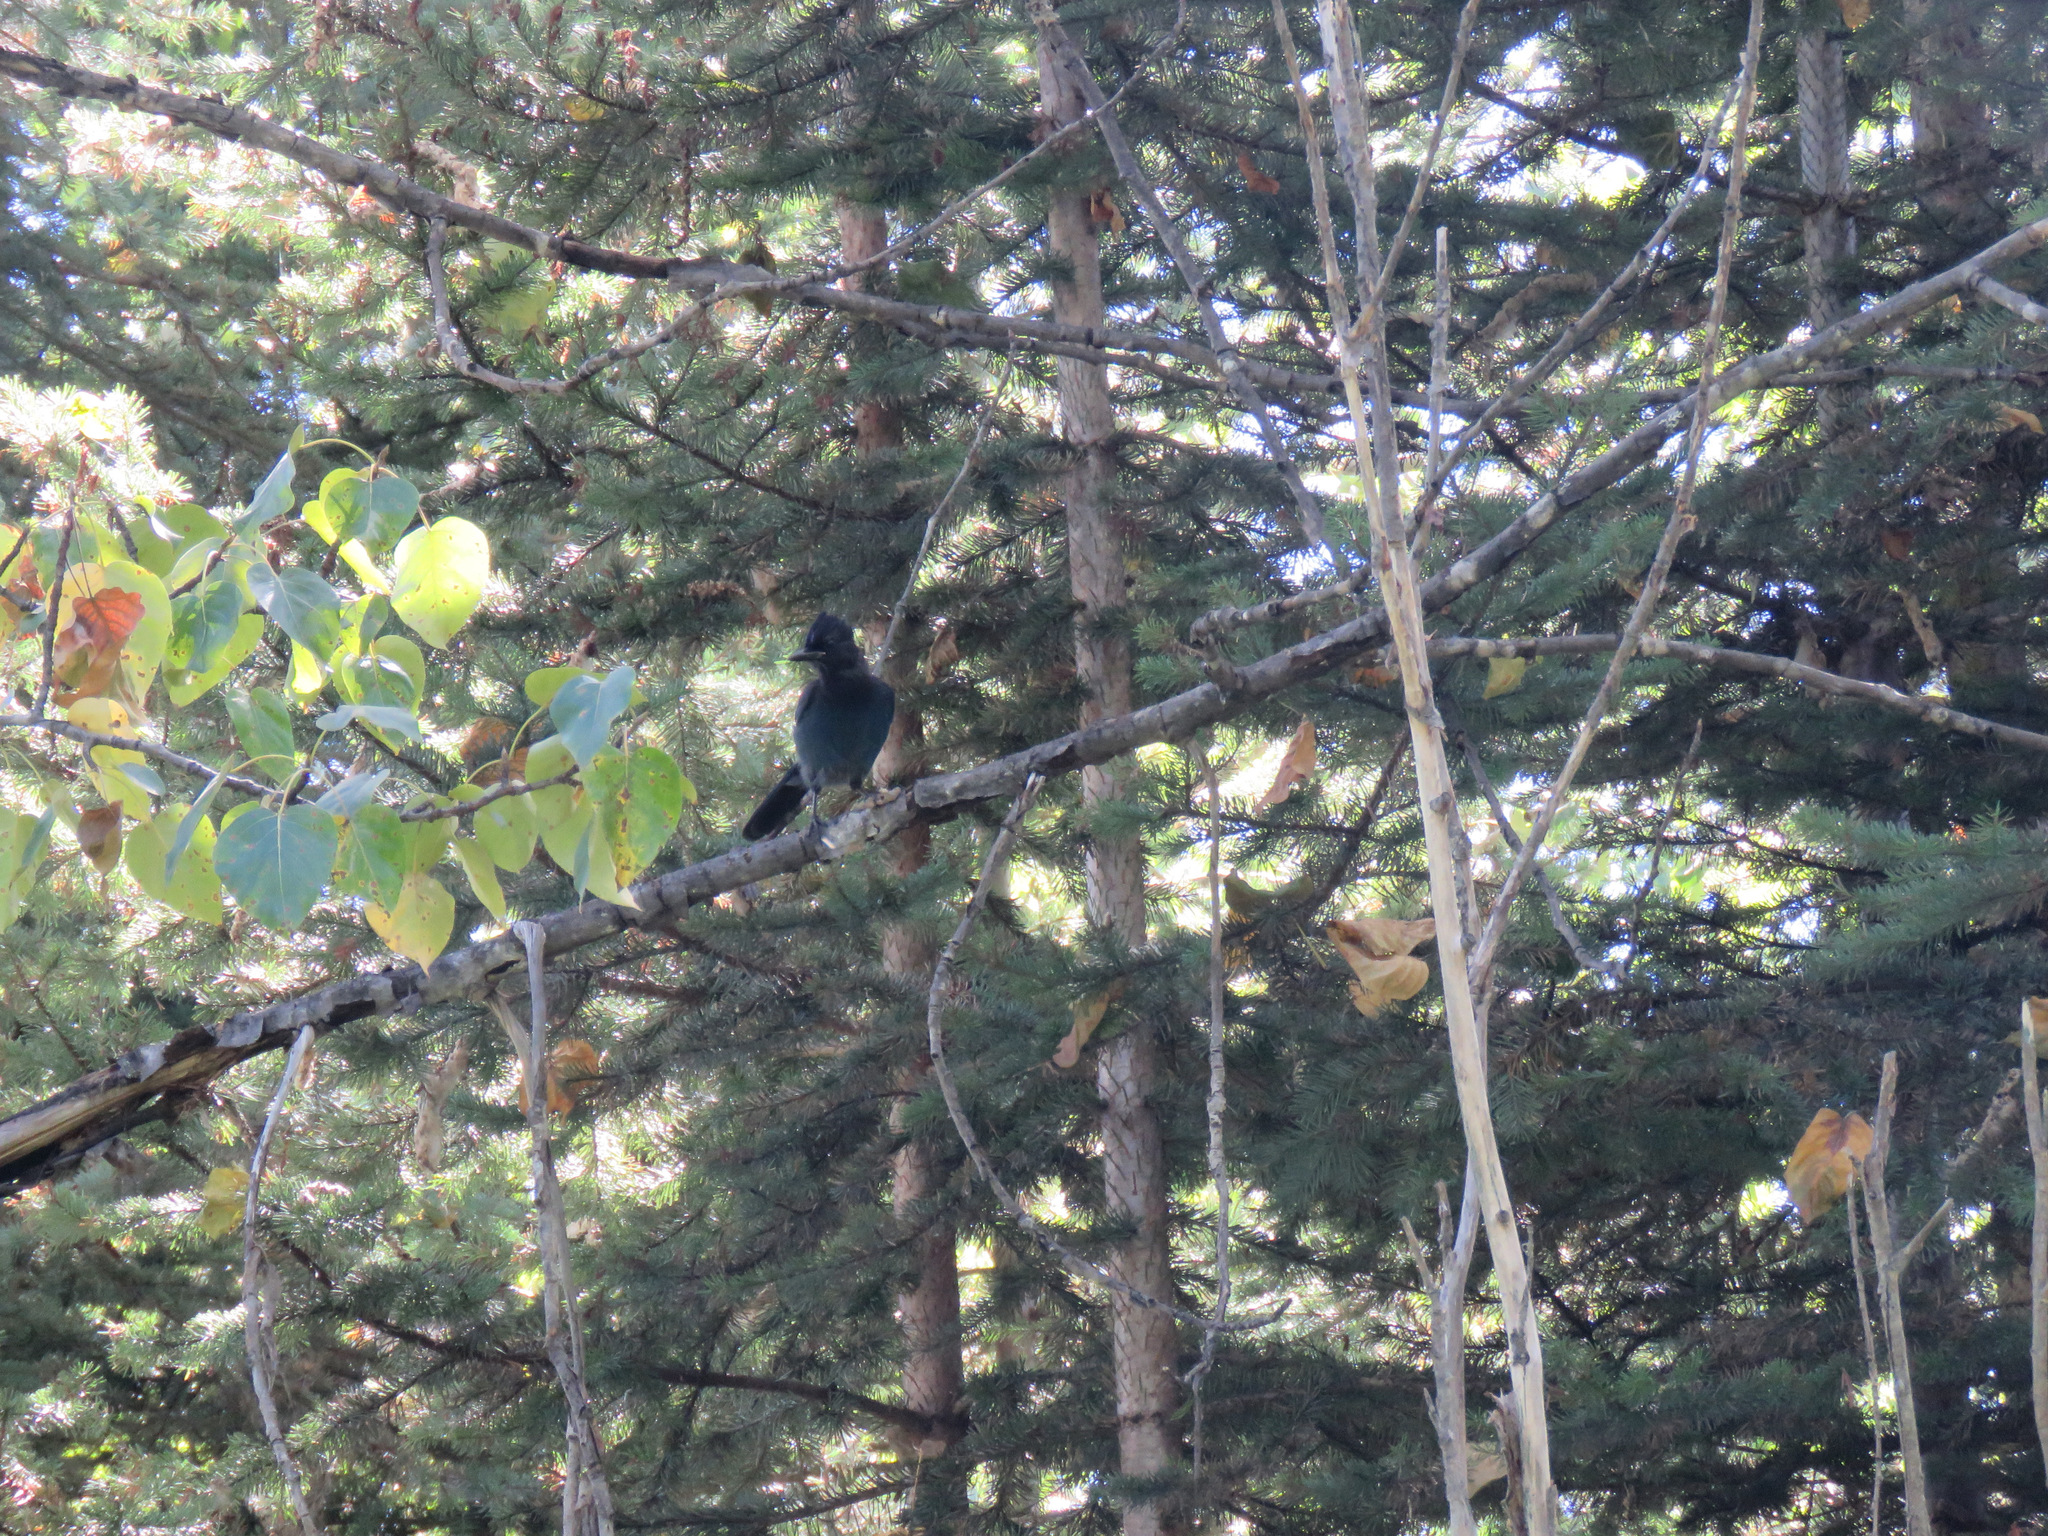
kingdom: Animalia
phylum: Chordata
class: Aves
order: Passeriformes
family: Corvidae
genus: Cyanocitta
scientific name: Cyanocitta stelleri
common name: Steller's jay
